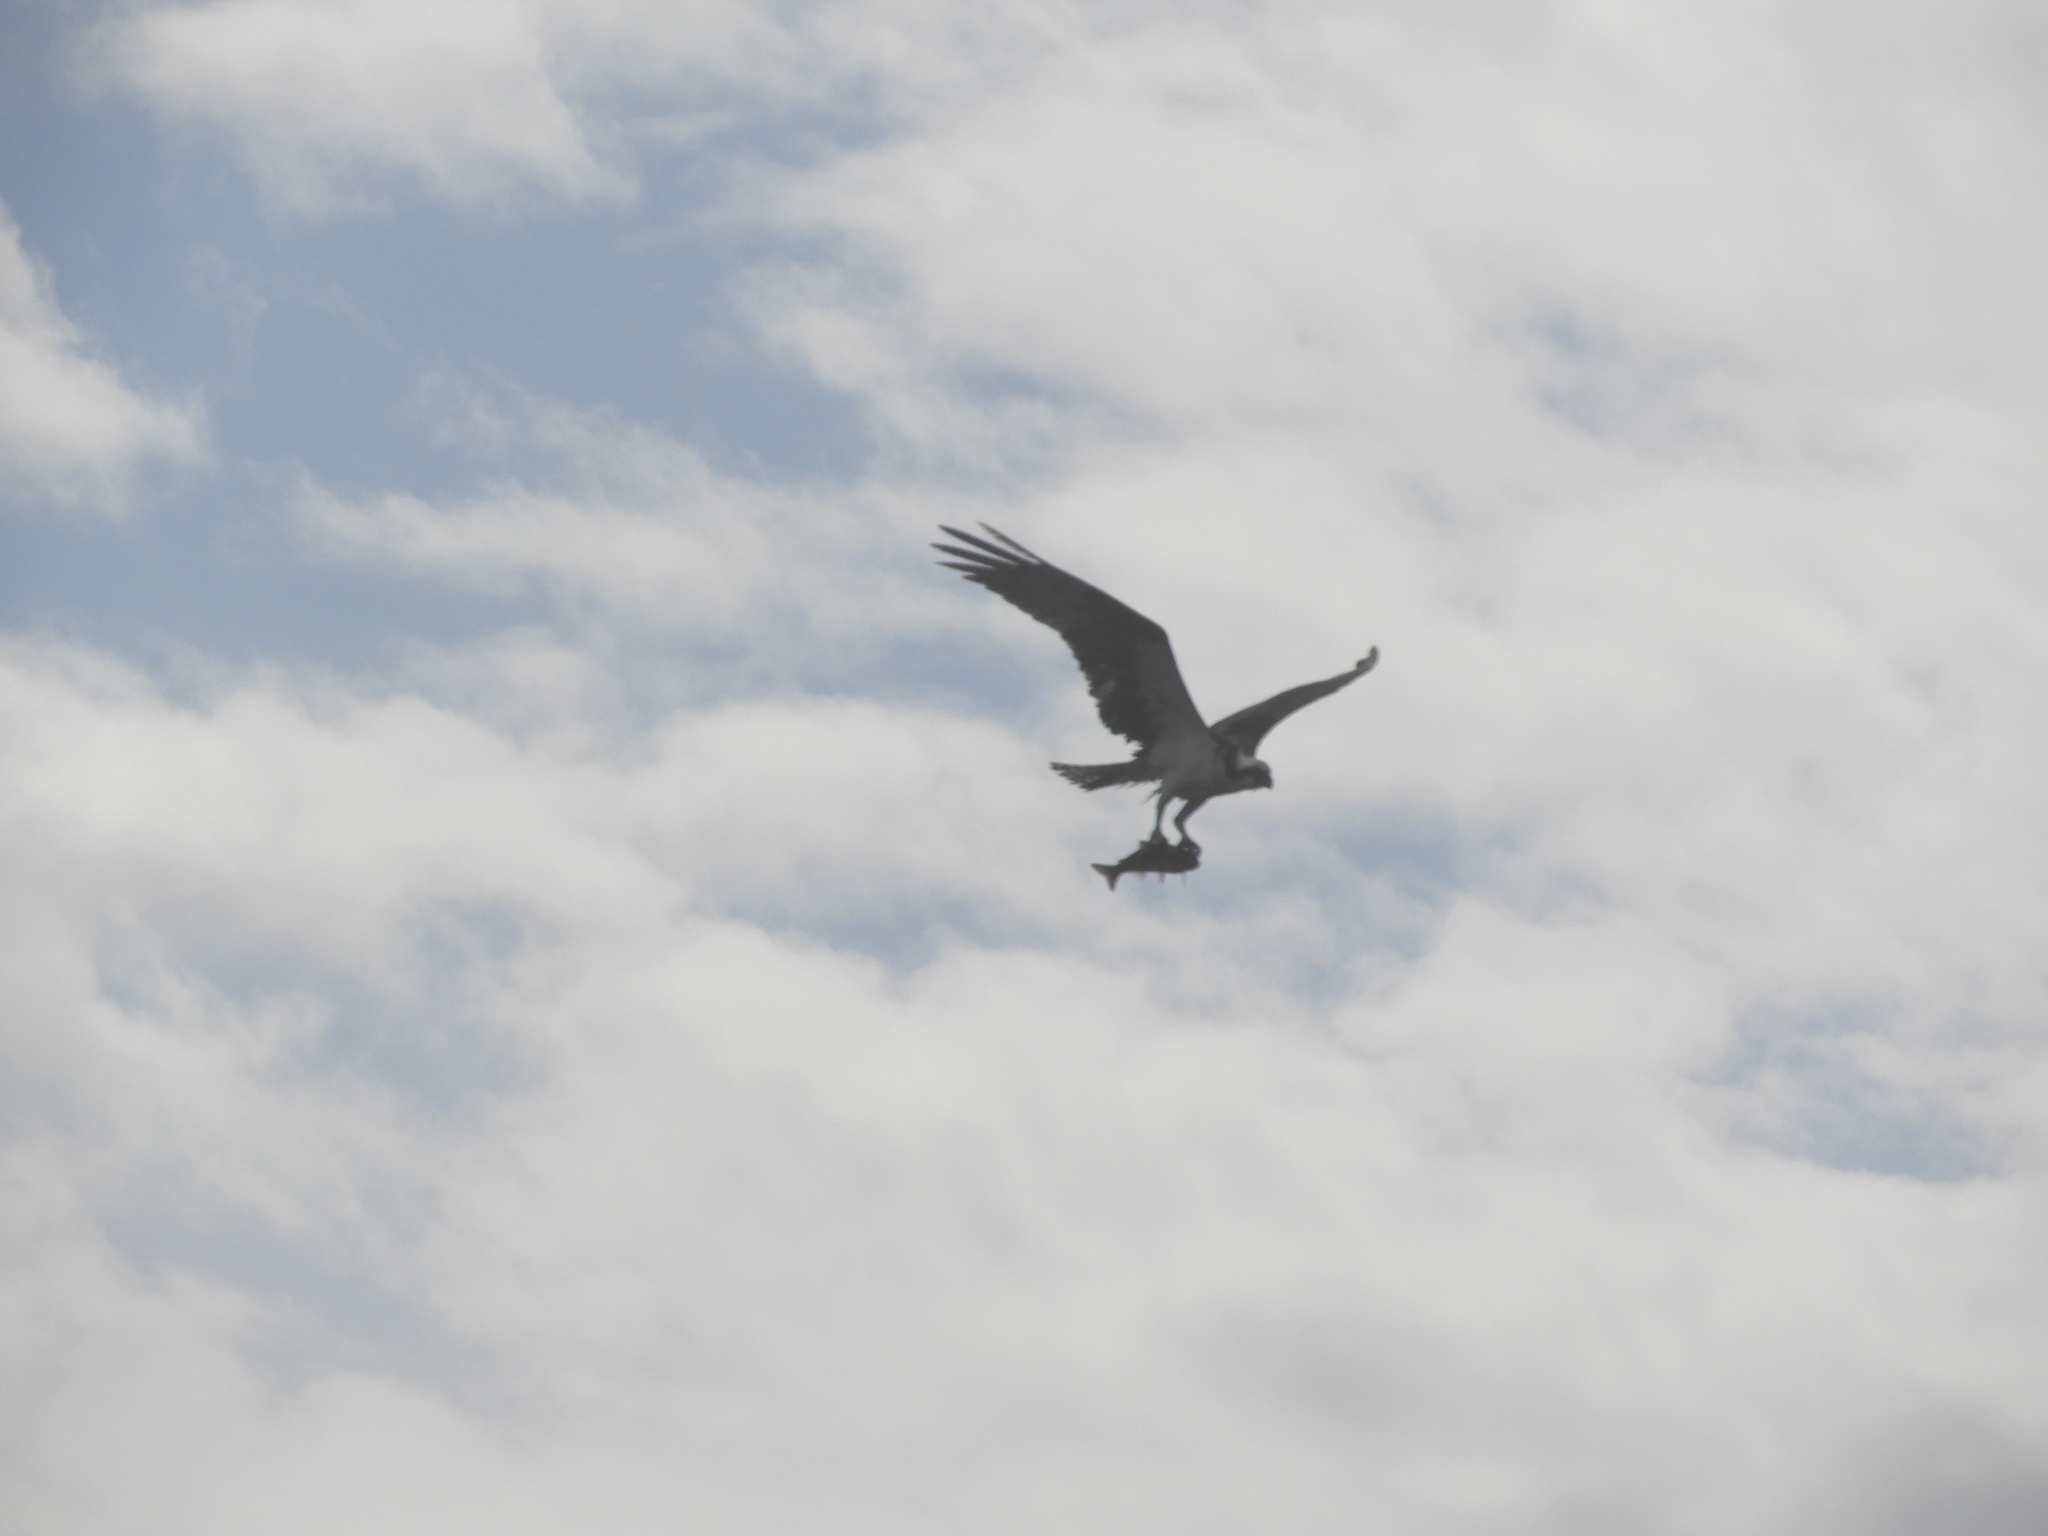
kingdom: Animalia
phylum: Chordata
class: Aves
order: Accipitriformes
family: Pandionidae
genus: Pandion
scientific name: Pandion haliaetus
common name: Osprey
